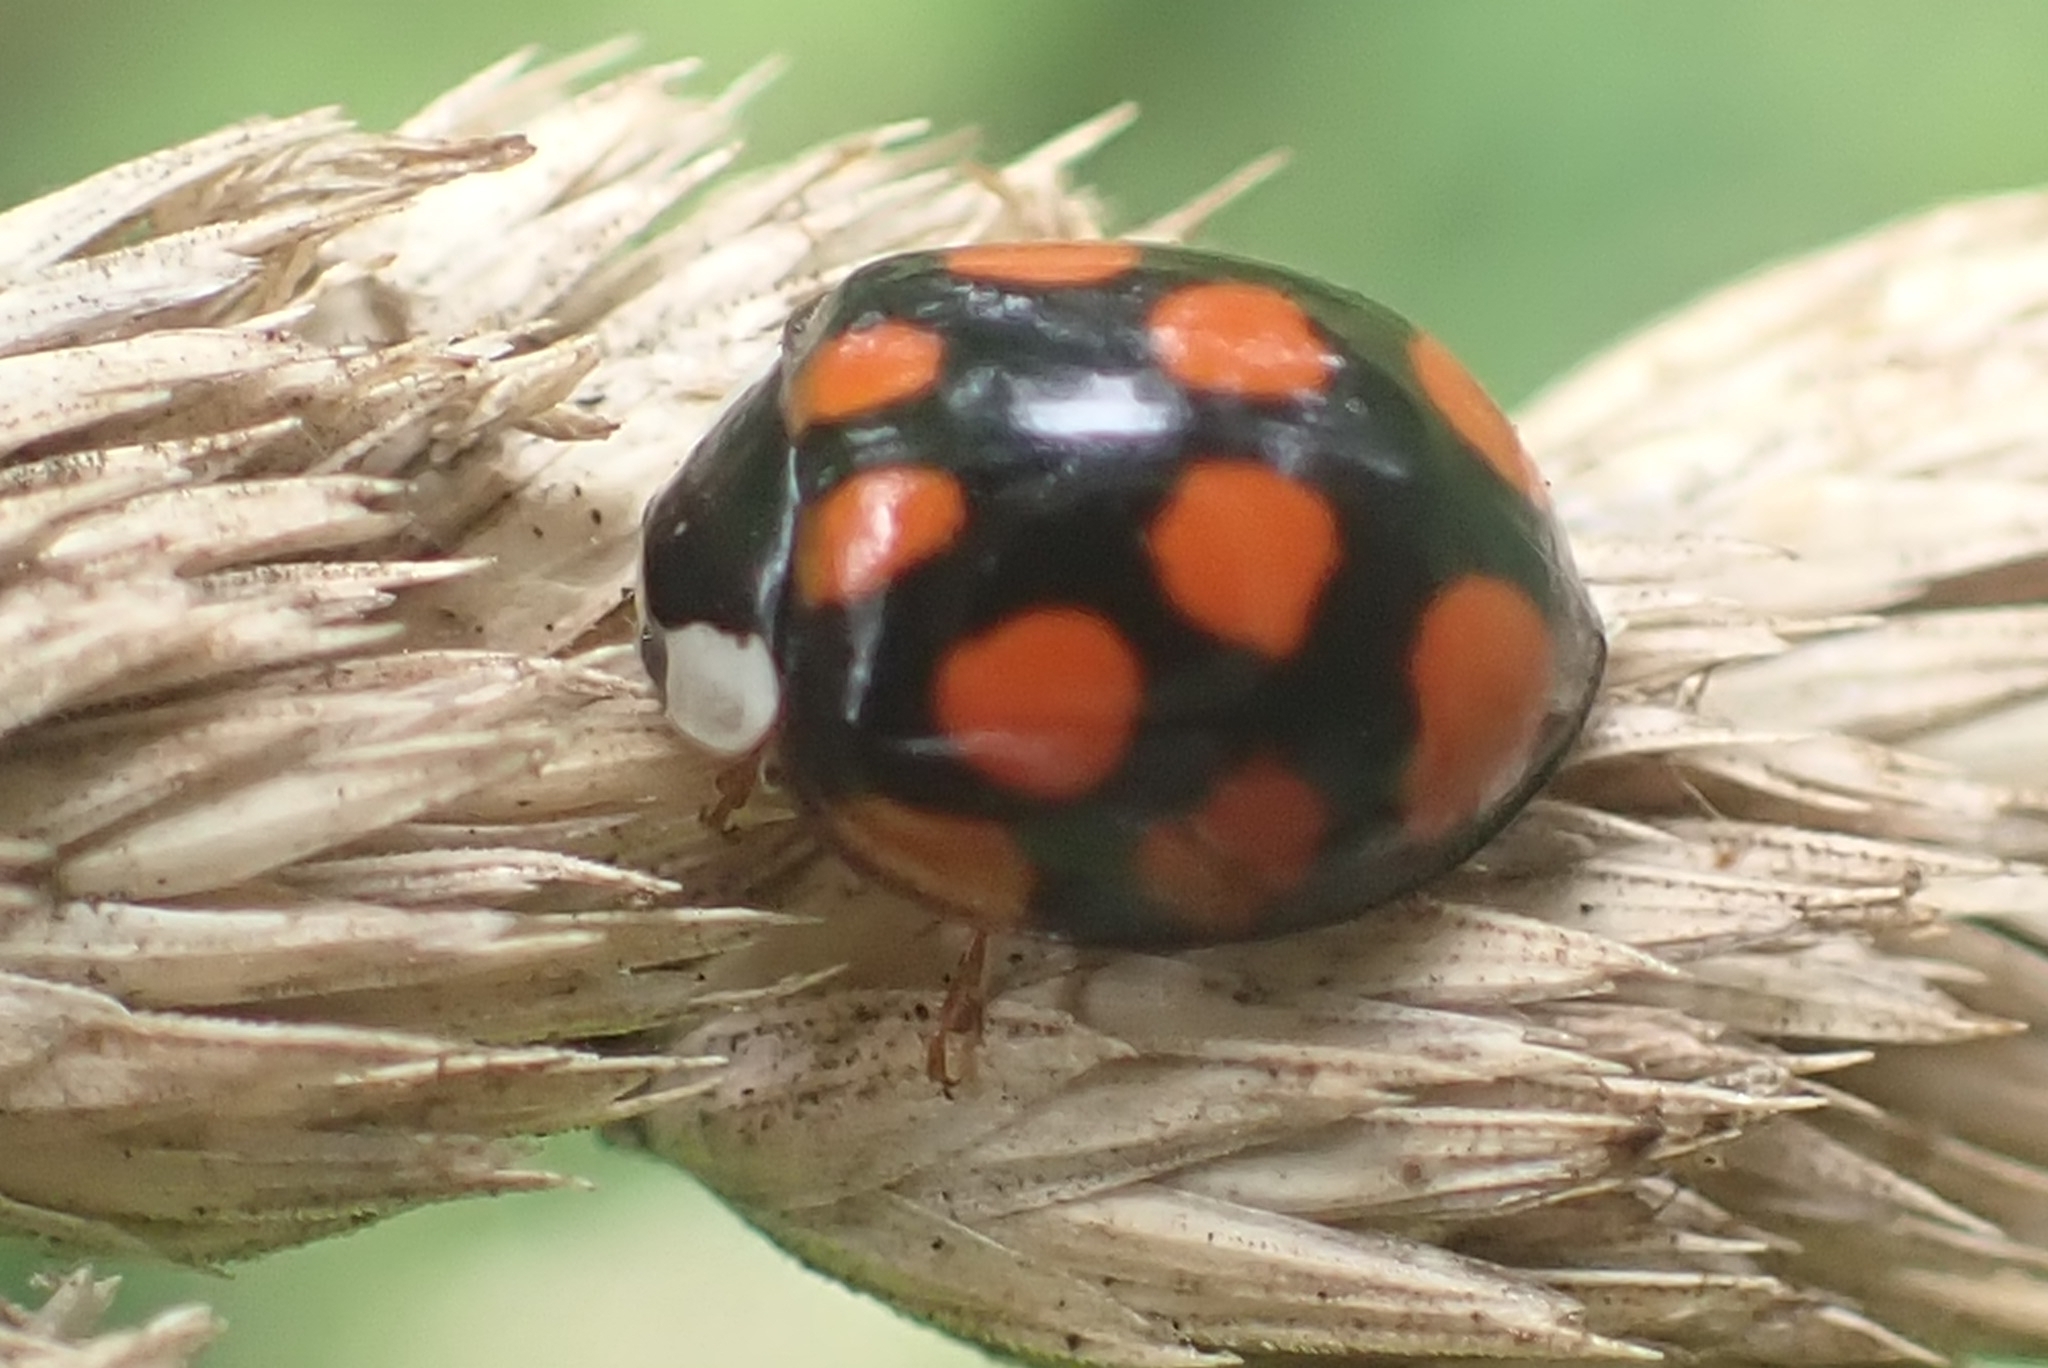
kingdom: Animalia
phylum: Arthropoda
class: Insecta
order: Coleoptera
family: Coccinellidae
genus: Harmonia
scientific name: Harmonia axyridis
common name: Harlequin ladybird
